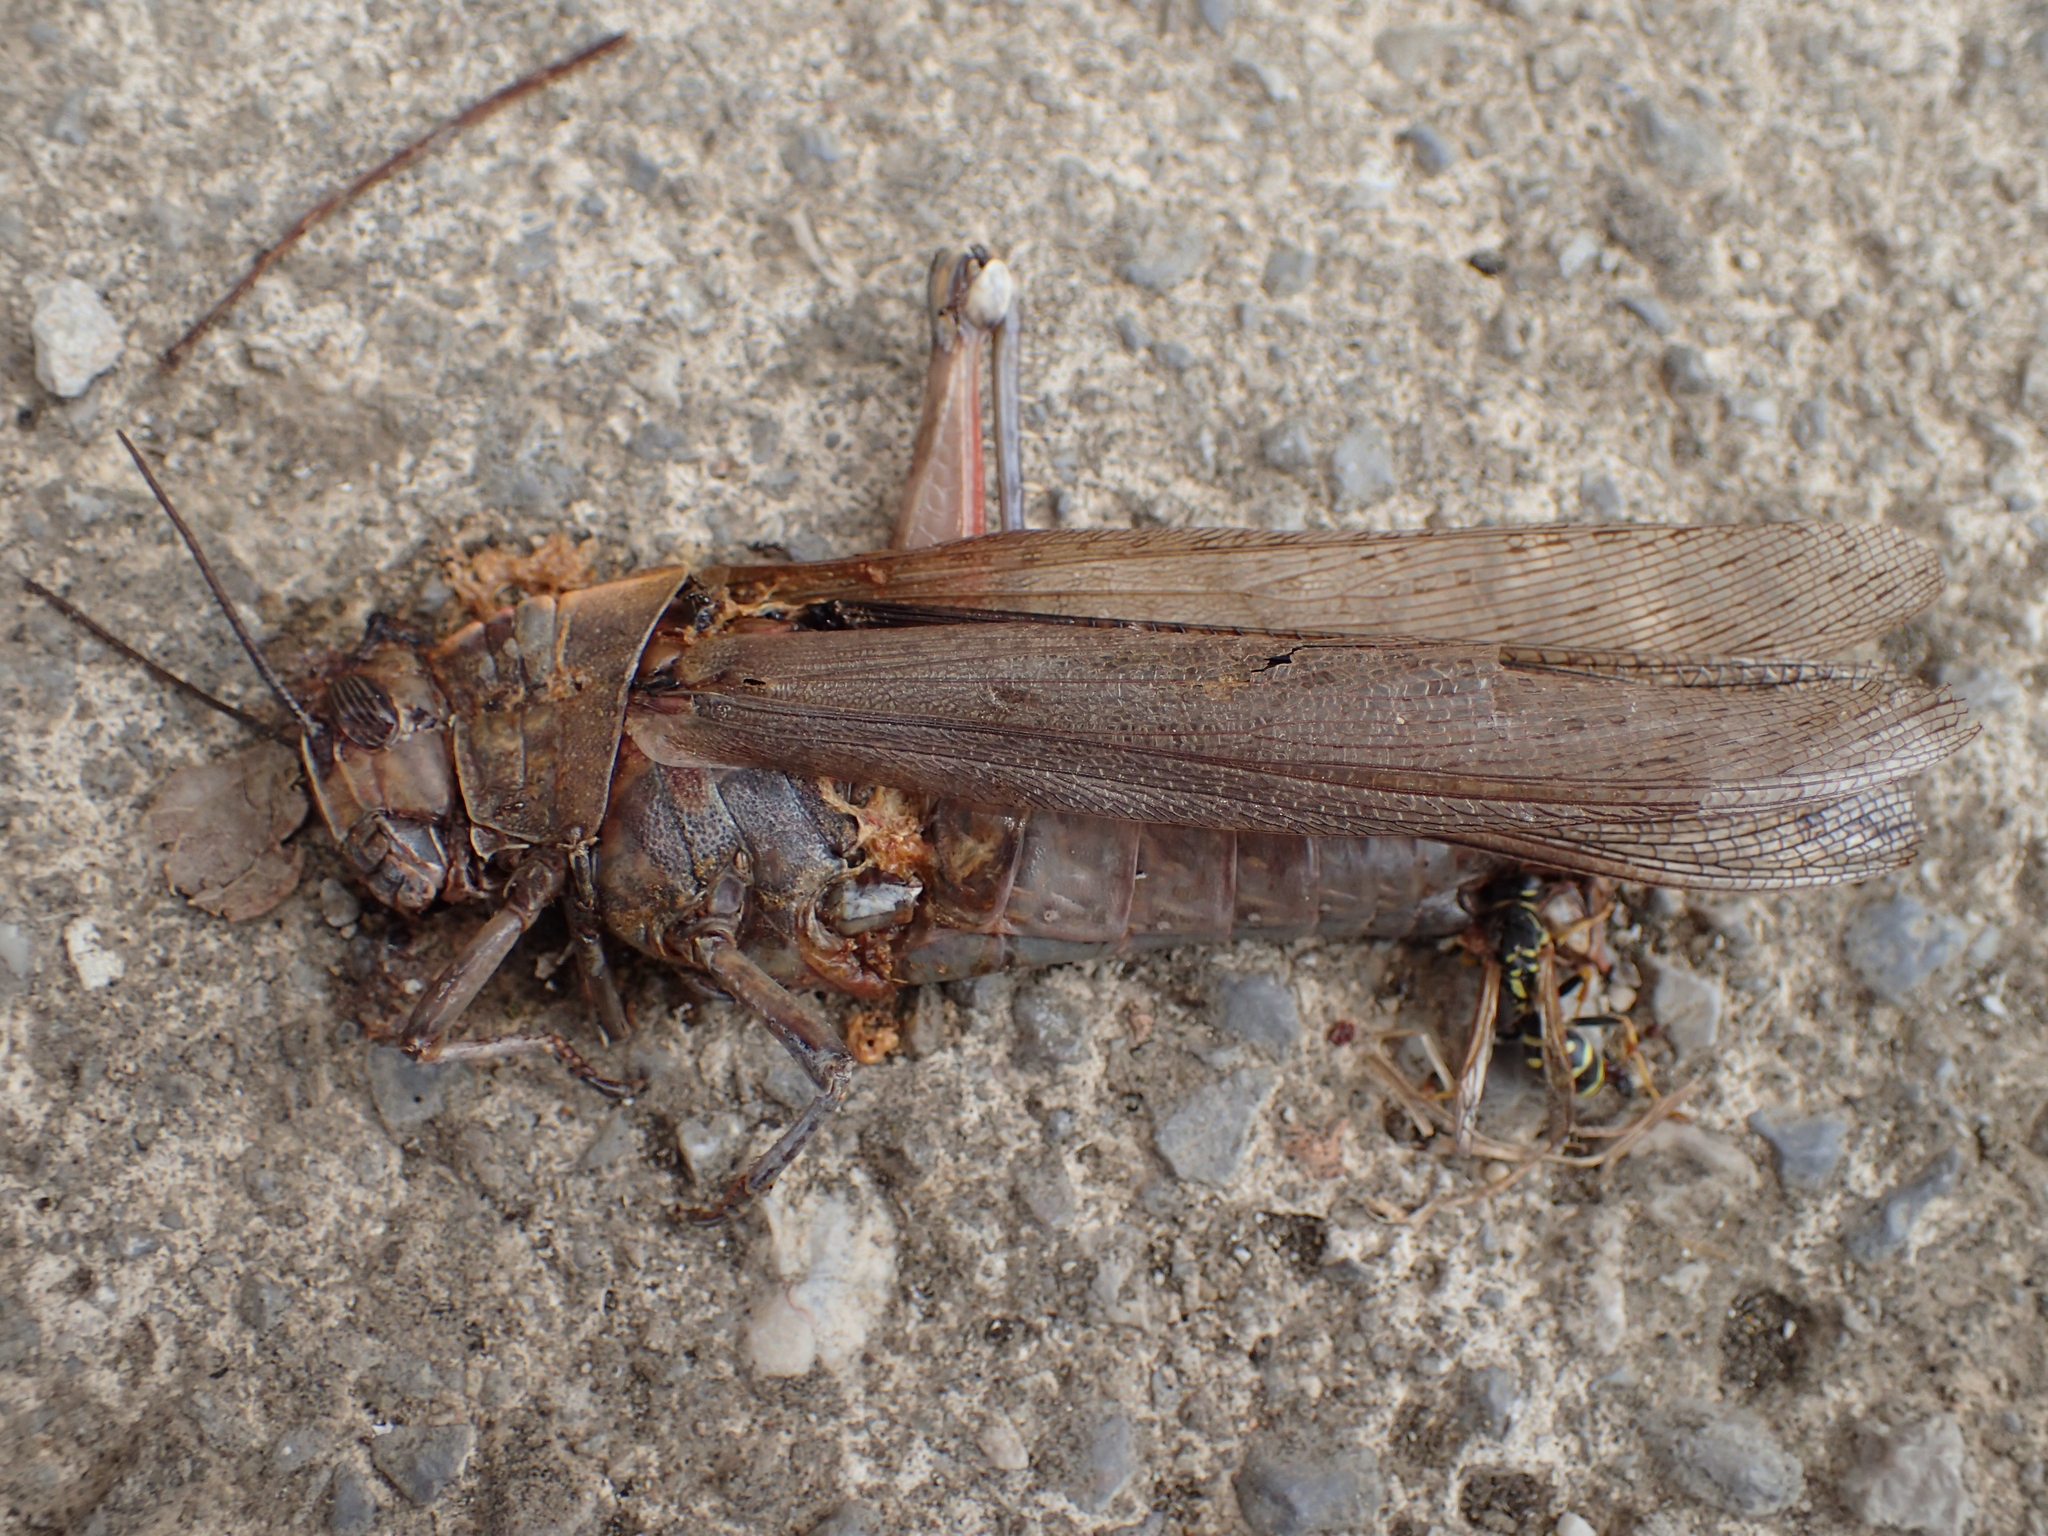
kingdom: Animalia
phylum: Arthropoda
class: Insecta
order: Orthoptera
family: Acrididae
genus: Anacridium
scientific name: Anacridium aegyptium
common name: Egyptian grasshopper
